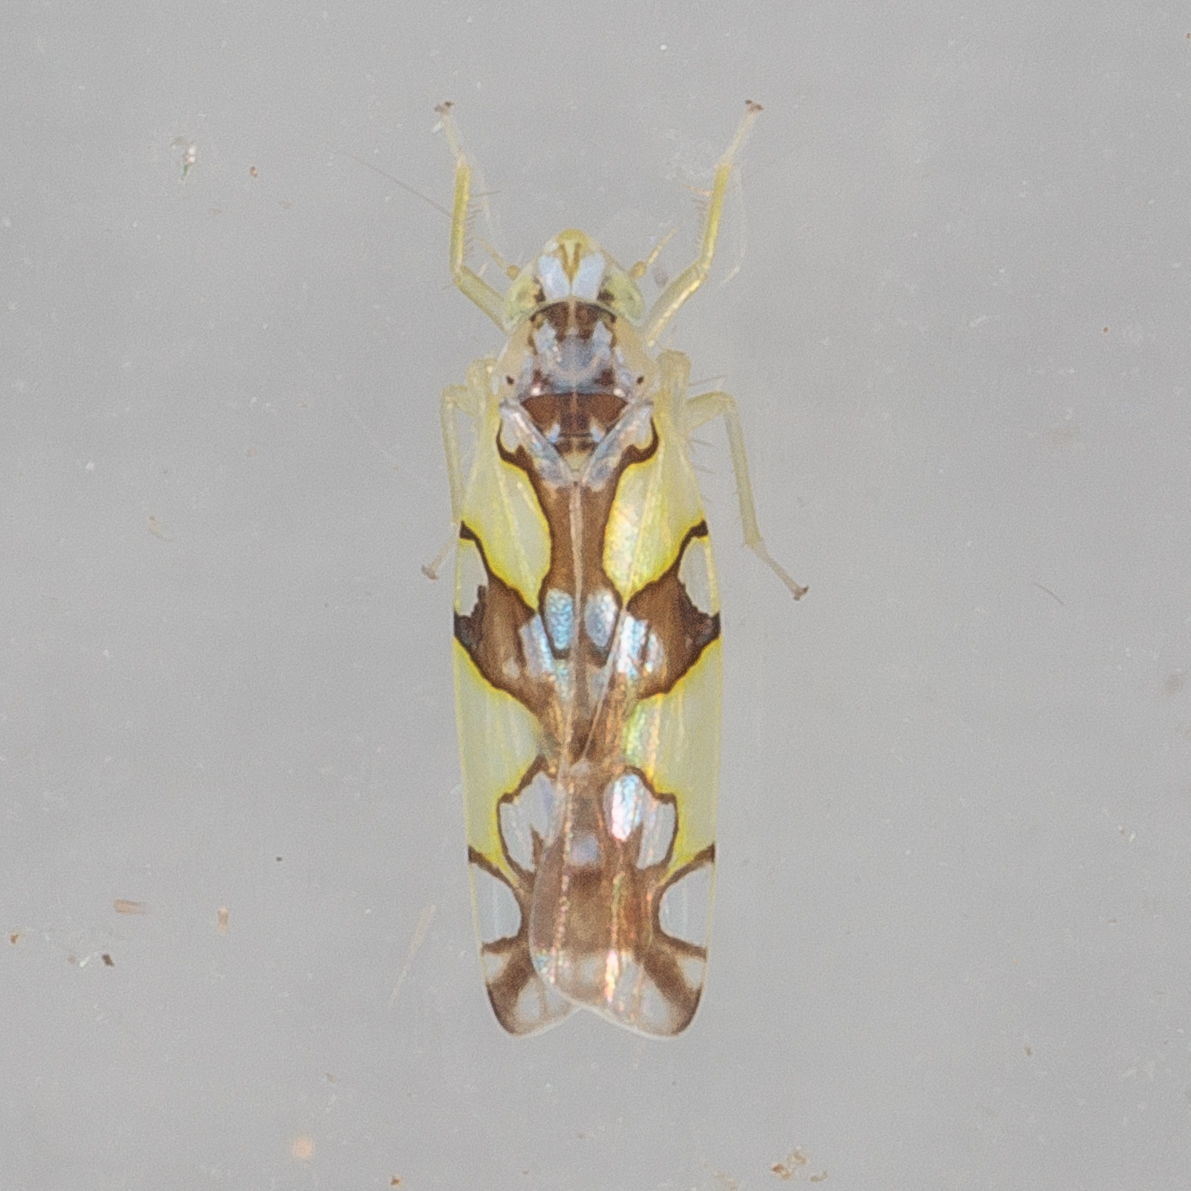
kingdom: Animalia
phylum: Arthropoda
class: Insecta
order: Hemiptera
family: Cicadellidae
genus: Protalebrella
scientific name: Protalebrella conica
